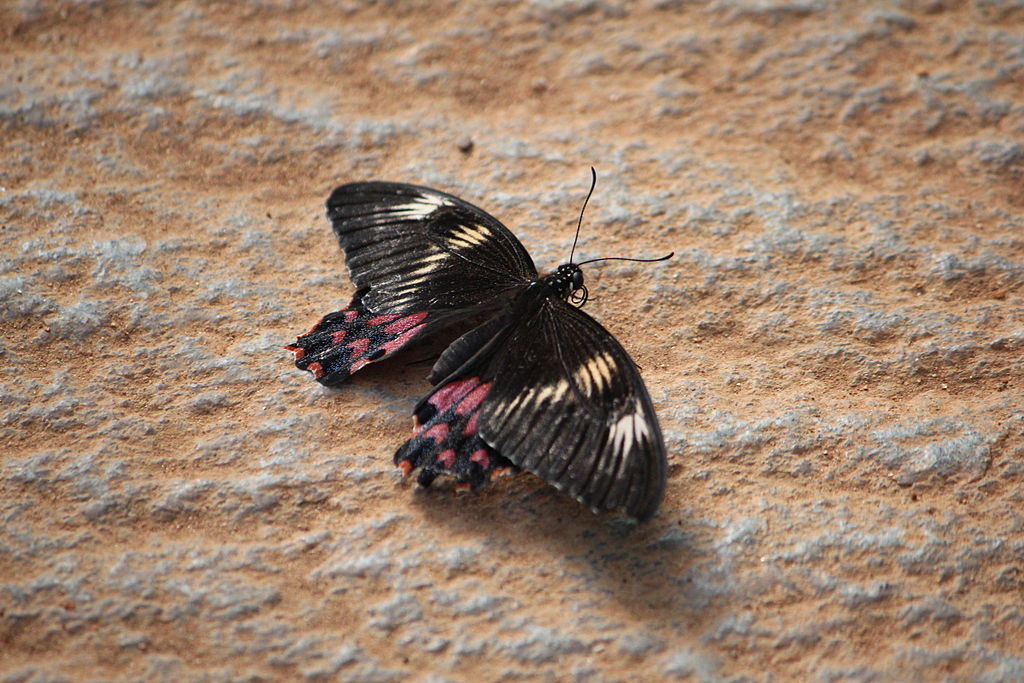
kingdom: Animalia
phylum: Arthropoda
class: Insecta
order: Lepidoptera
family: Papilionidae
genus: Papilio
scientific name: Papilio polytes
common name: Common mormon
